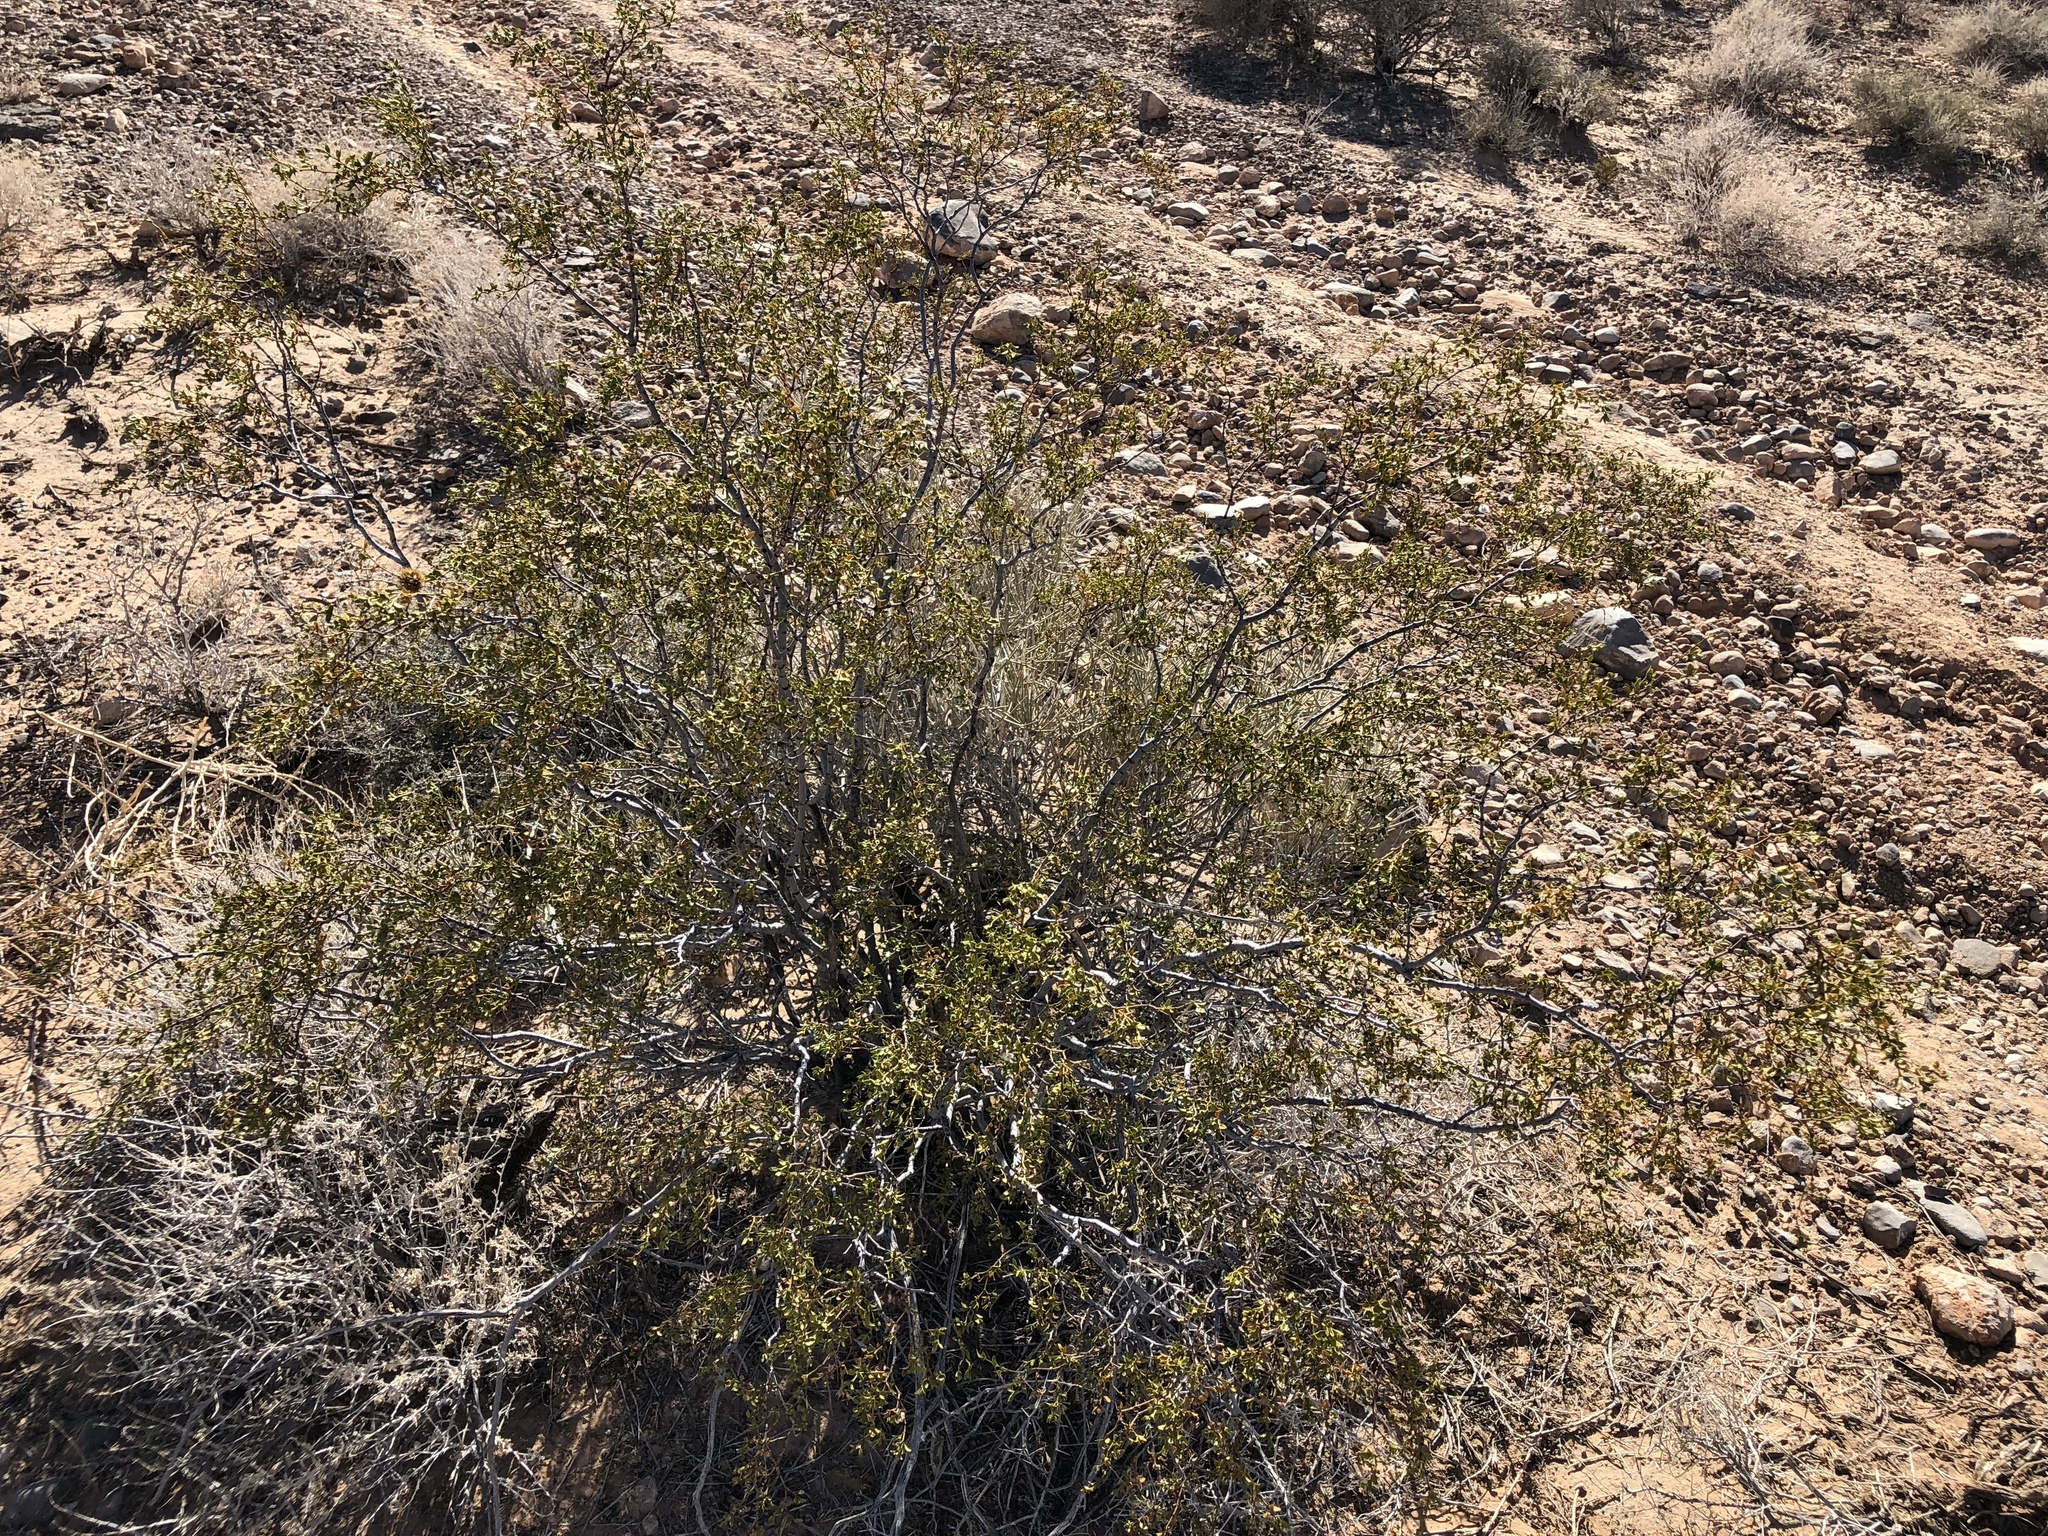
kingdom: Plantae
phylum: Tracheophyta
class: Magnoliopsida
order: Zygophyllales
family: Zygophyllaceae
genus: Larrea
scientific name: Larrea tridentata
